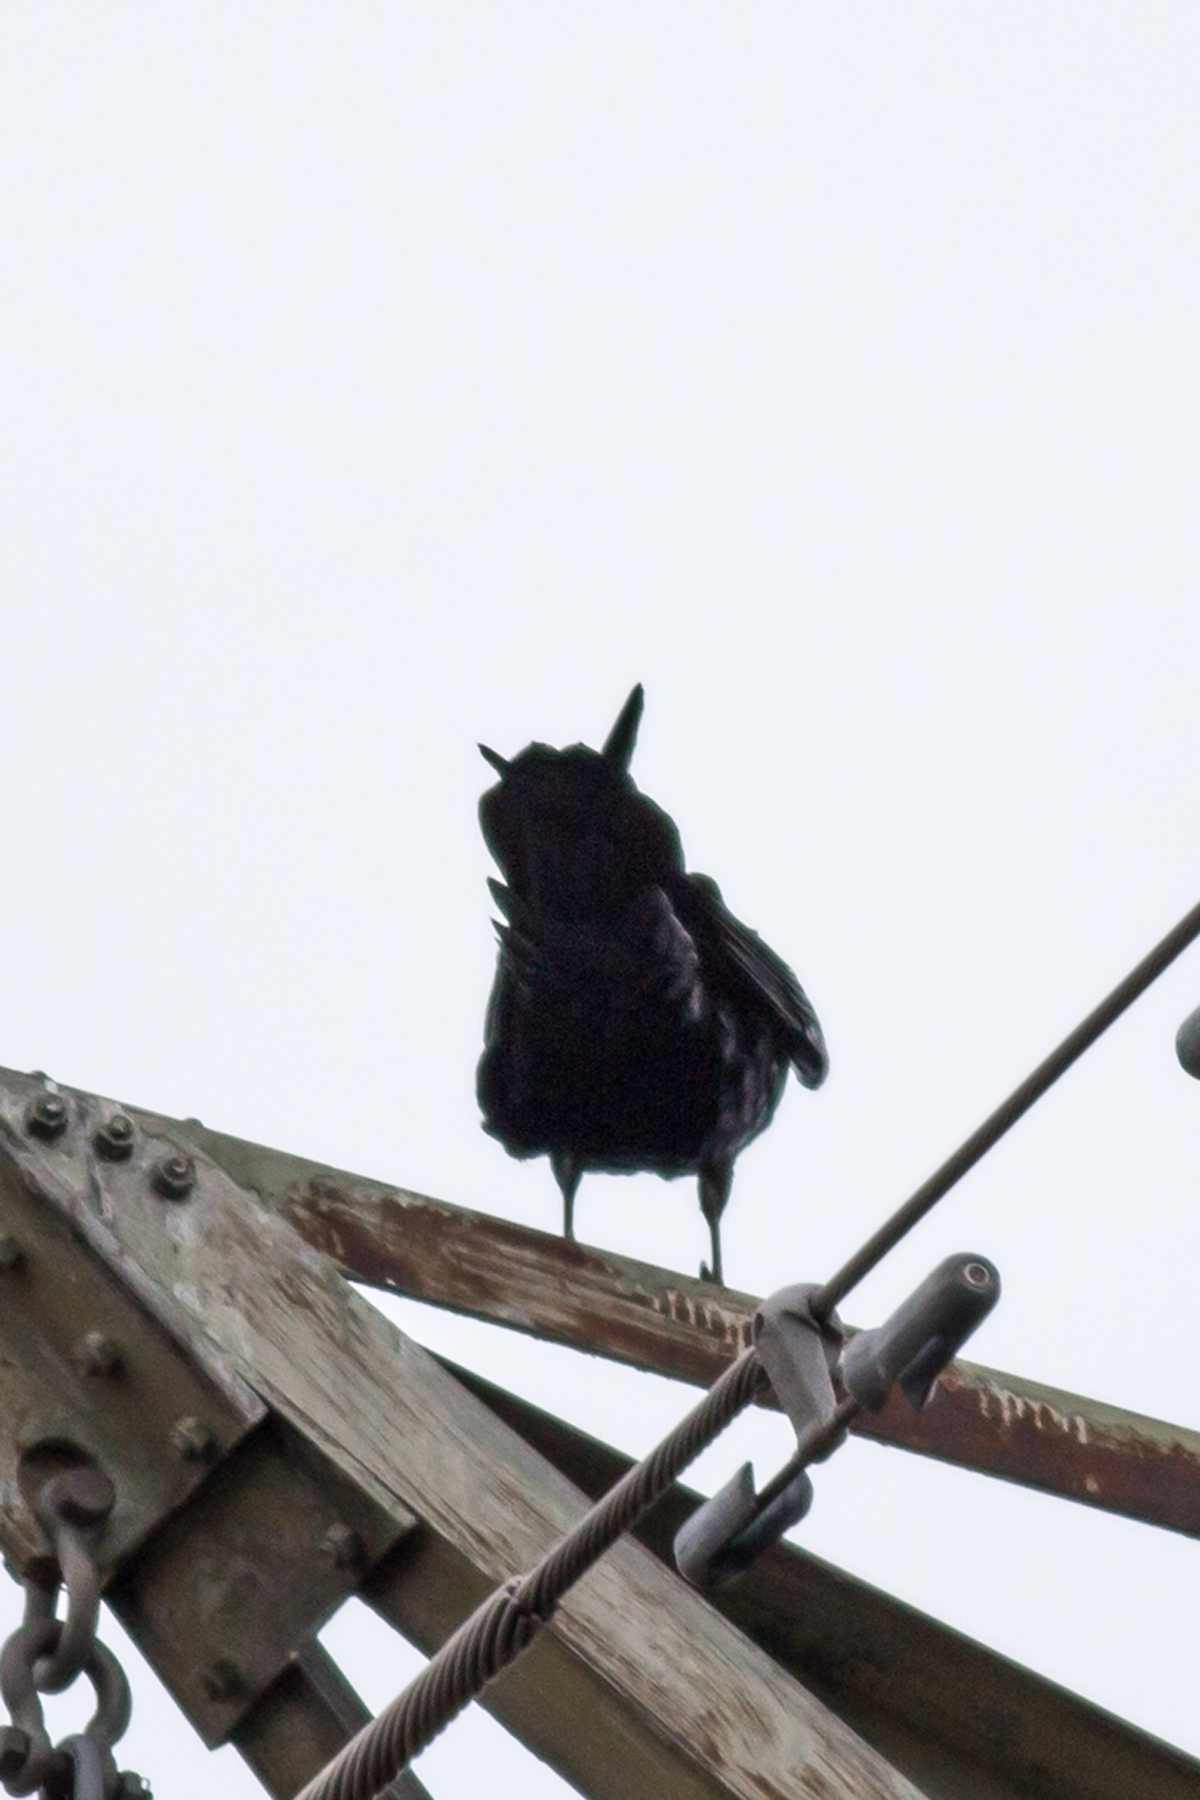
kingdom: Animalia
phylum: Chordata
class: Aves
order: Passeriformes
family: Corvidae
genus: Corvus
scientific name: Corvus corax
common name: Common raven
